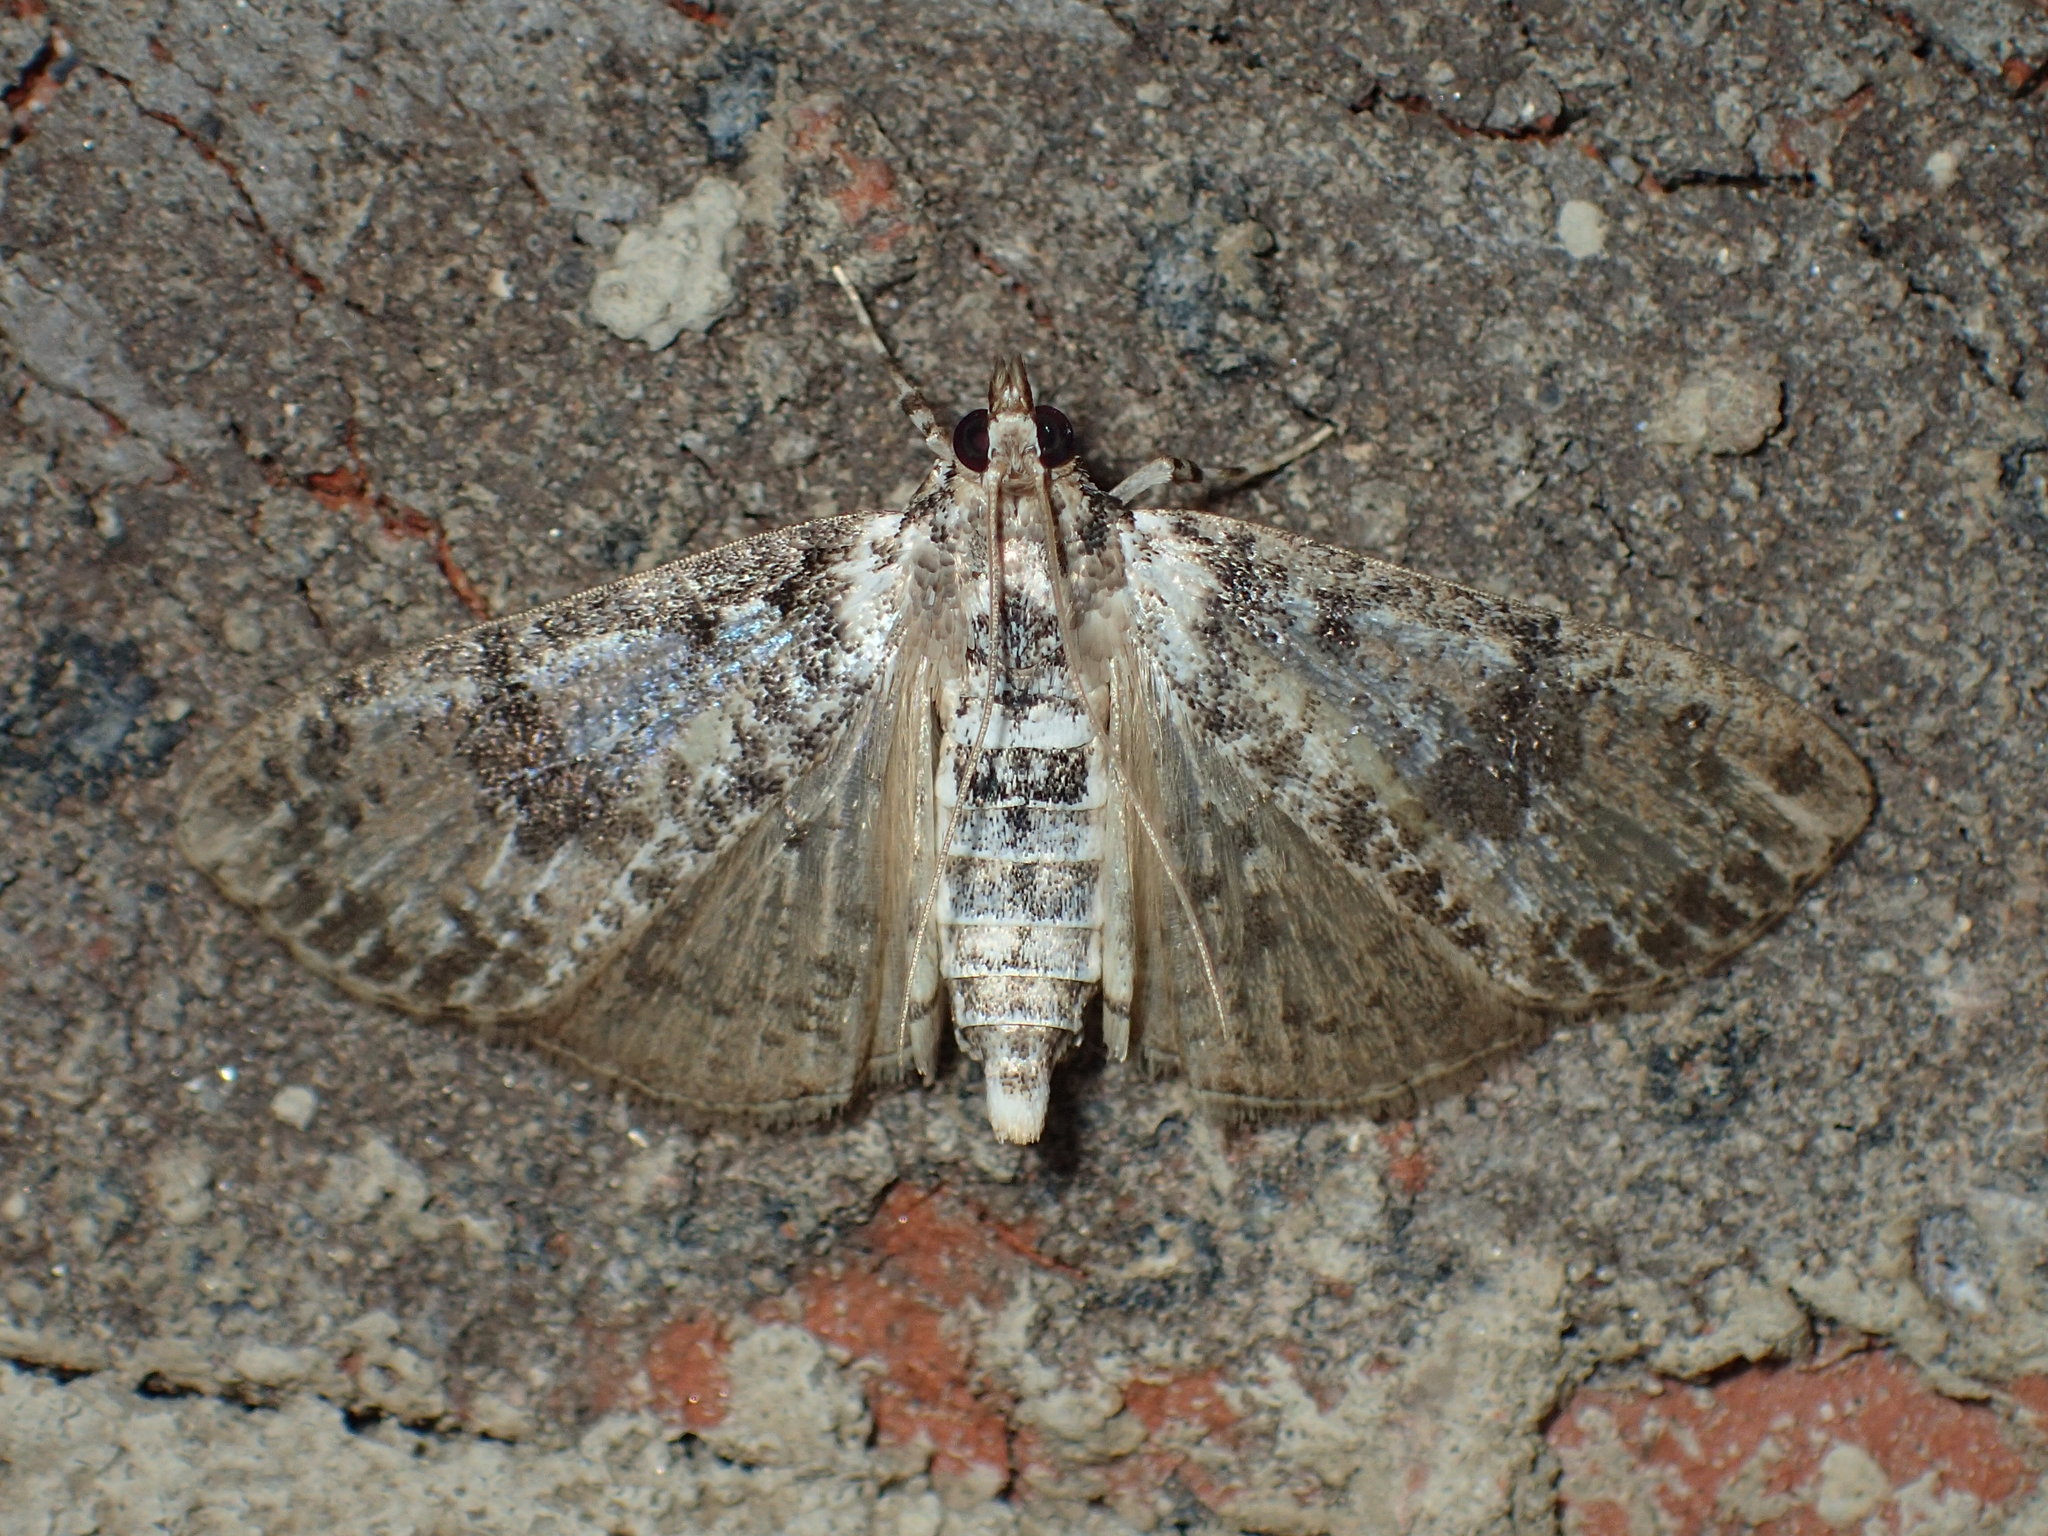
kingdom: Animalia
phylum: Arthropoda
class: Insecta
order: Lepidoptera
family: Crambidae
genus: Palpita
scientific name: Palpita magniferalis
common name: Splendid palpita moth
